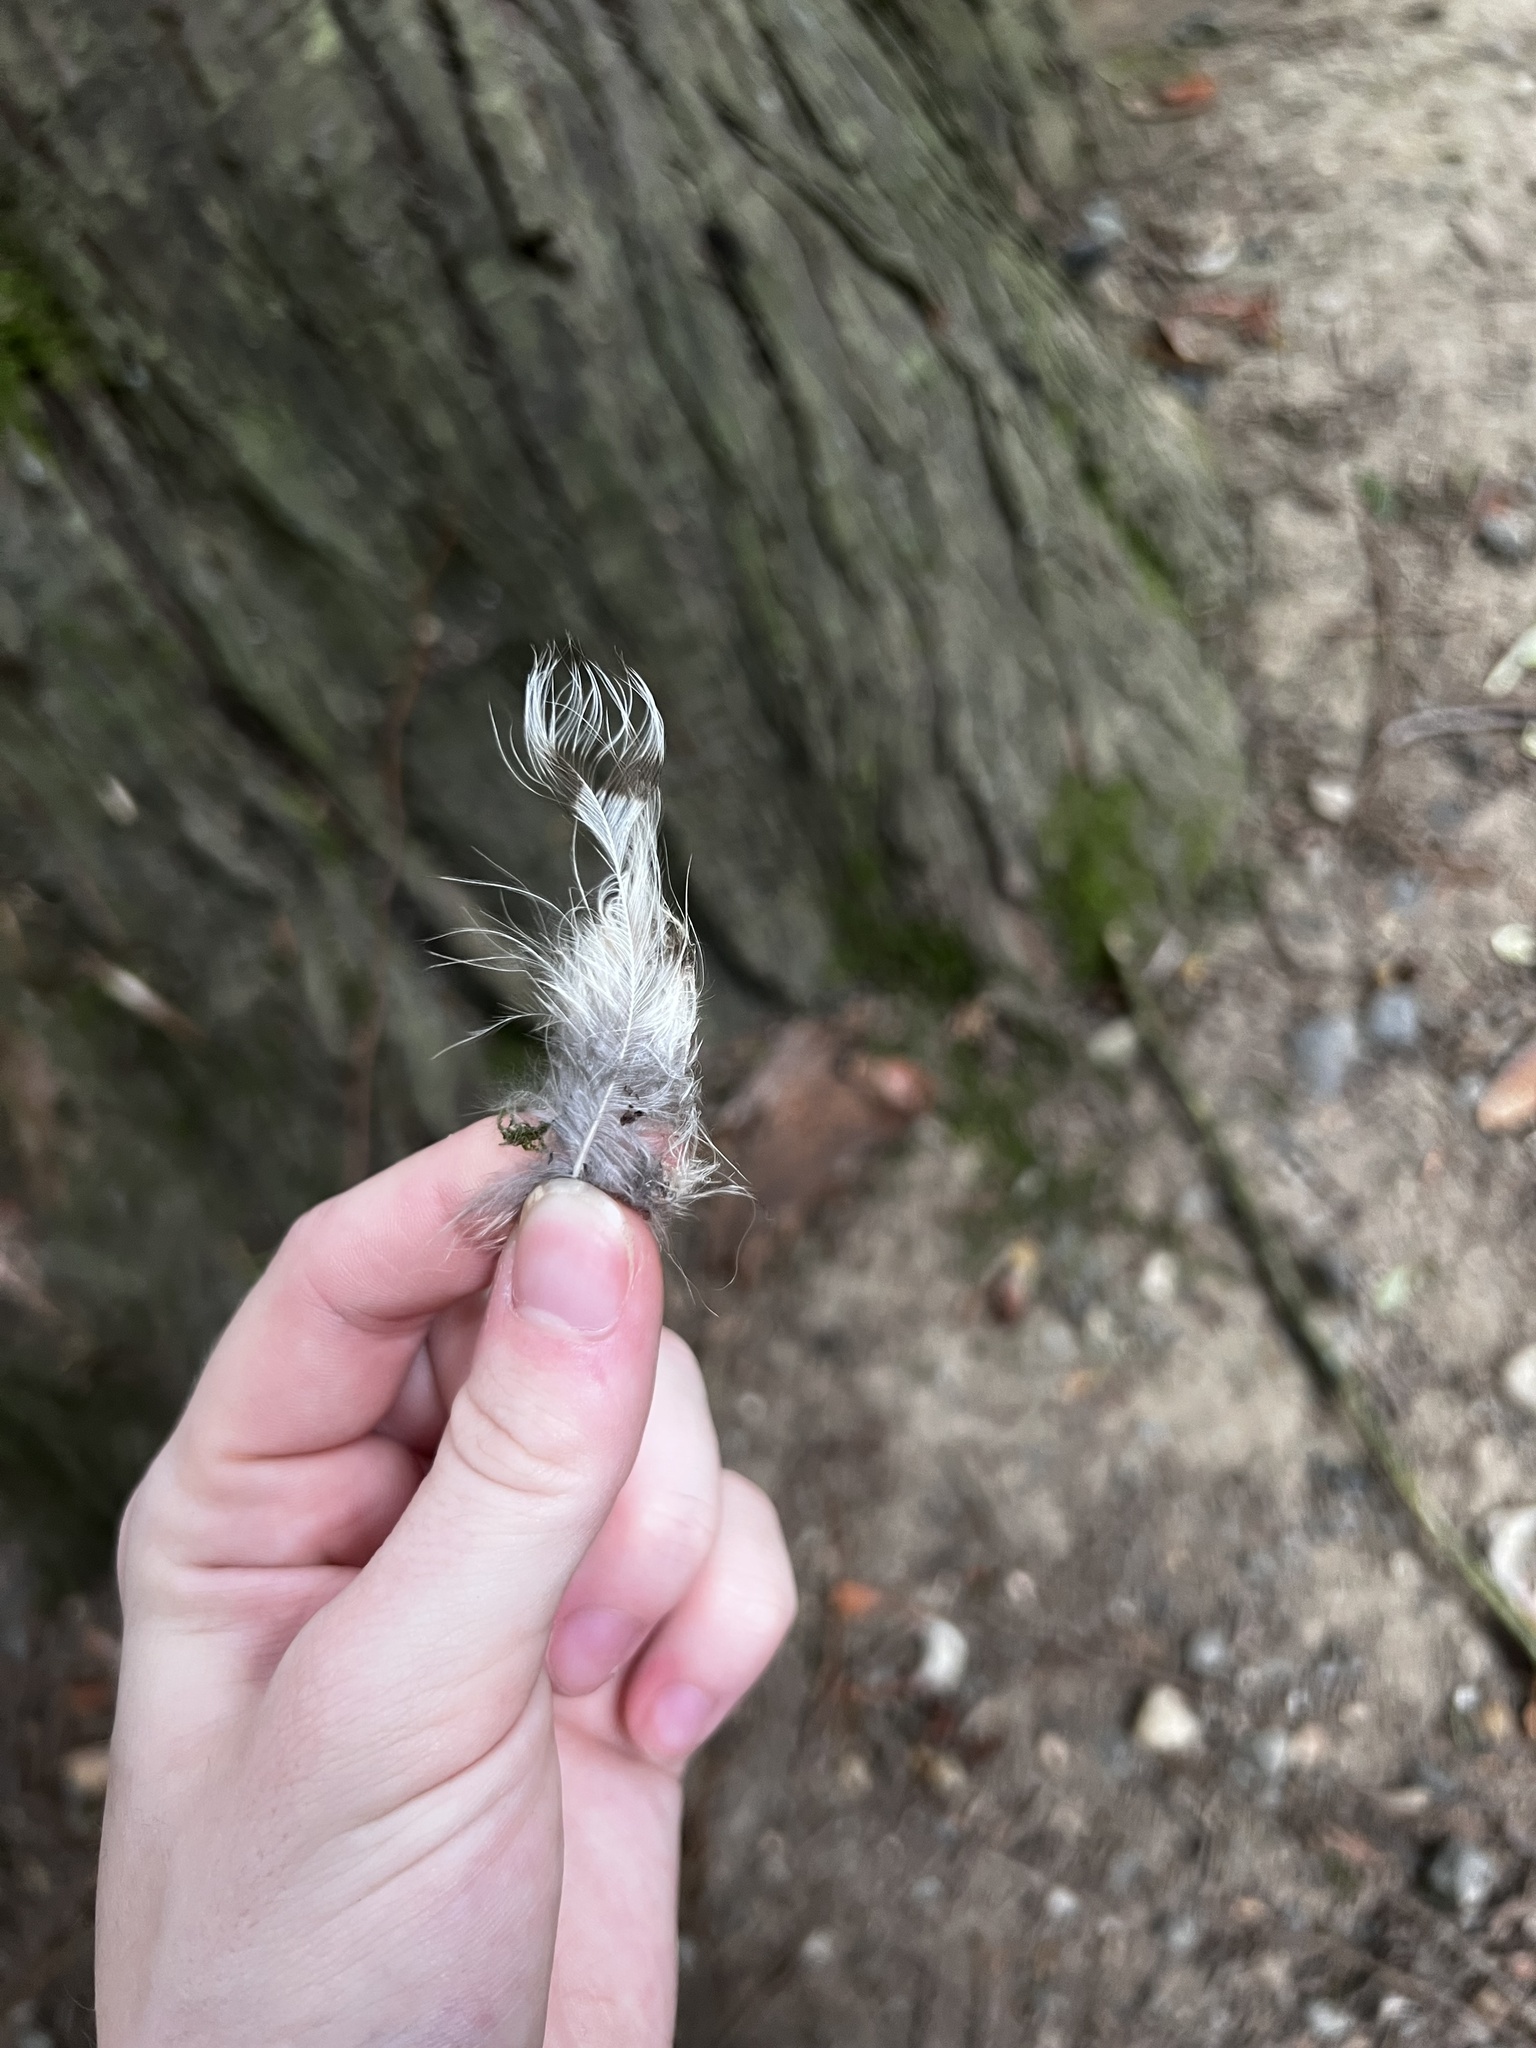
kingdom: Animalia
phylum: Chordata
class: Aves
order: Strigiformes
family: Strigidae
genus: Strix
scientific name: Strix varia
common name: Barred owl
